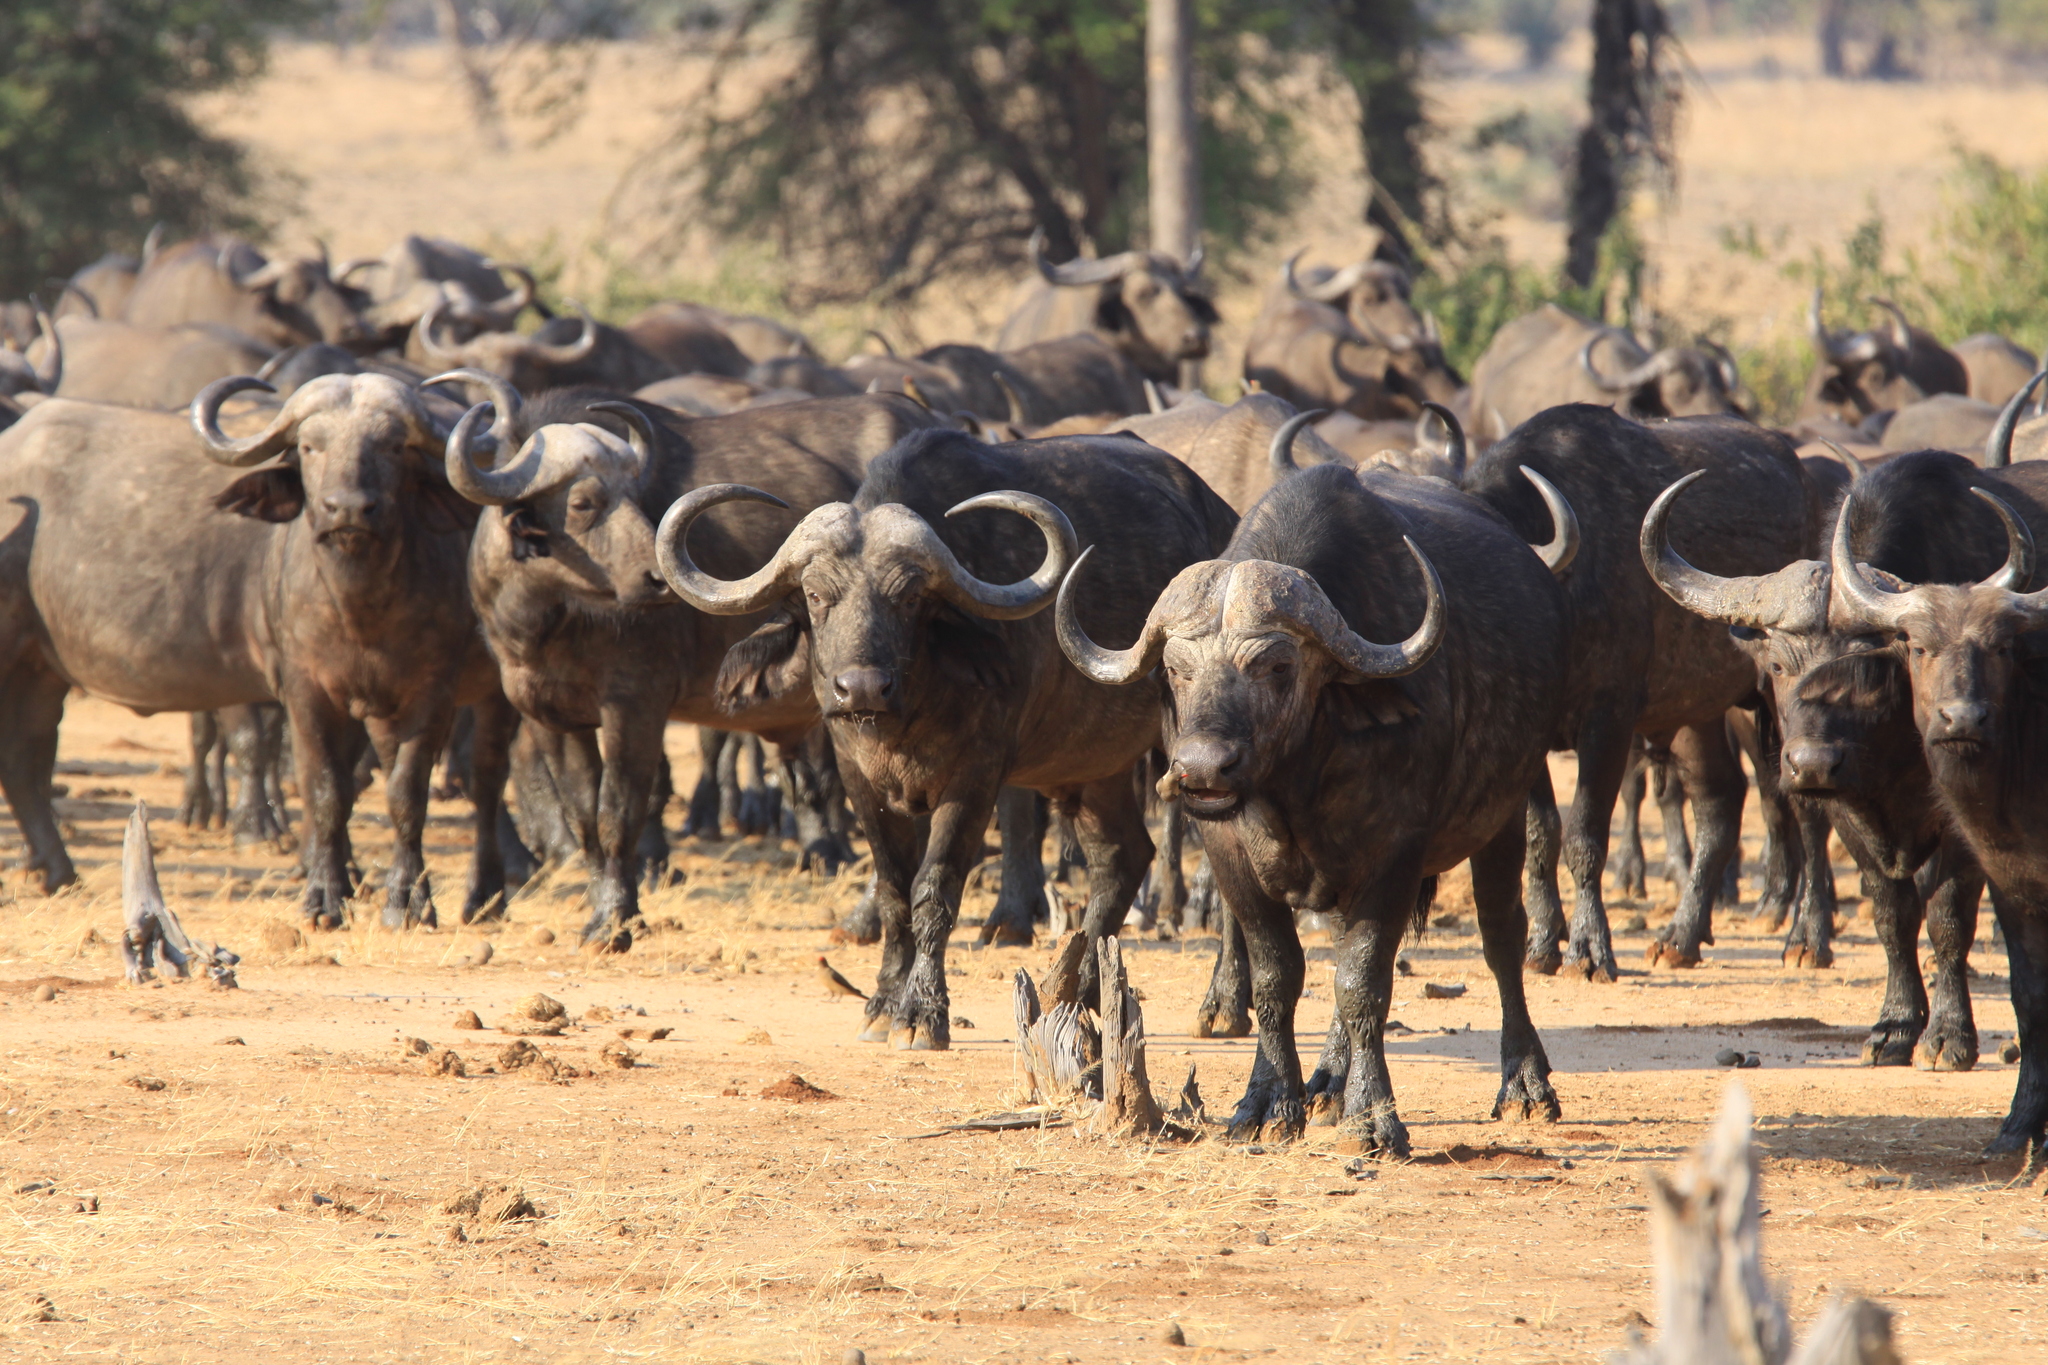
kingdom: Animalia
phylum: Chordata
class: Mammalia
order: Artiodactyla
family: Bovidae
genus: Syncerus
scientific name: Syncerus caffer
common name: African buffalo
